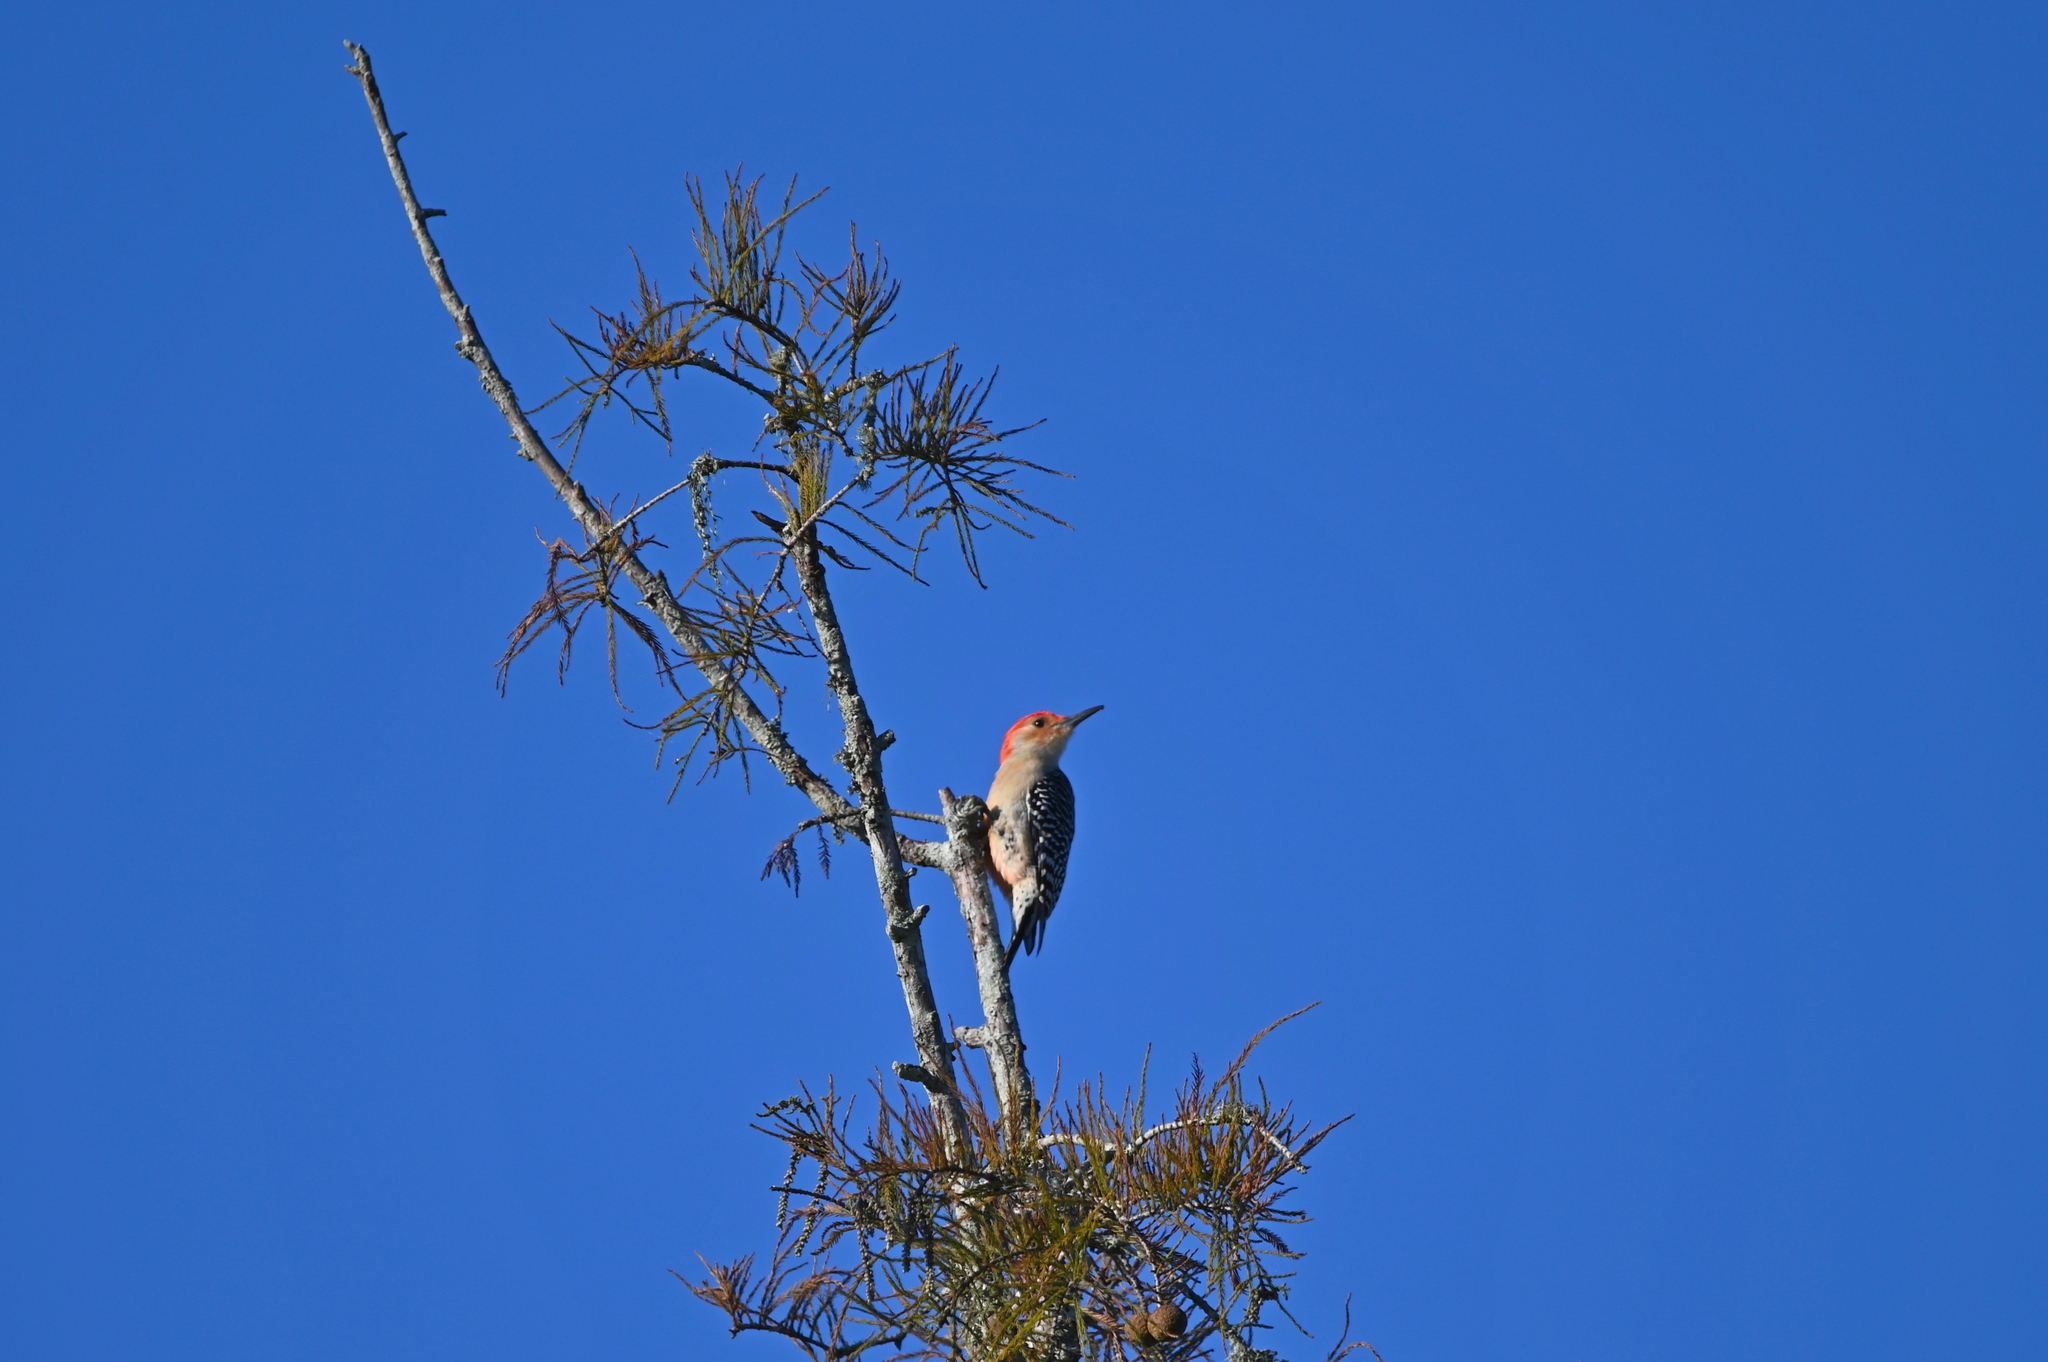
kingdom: Animalia
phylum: Chordata
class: Aves
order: Piciformes
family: Picidae
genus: Melanerpes
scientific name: Melanerpes carolinus
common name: Red-bellied woodpecker
